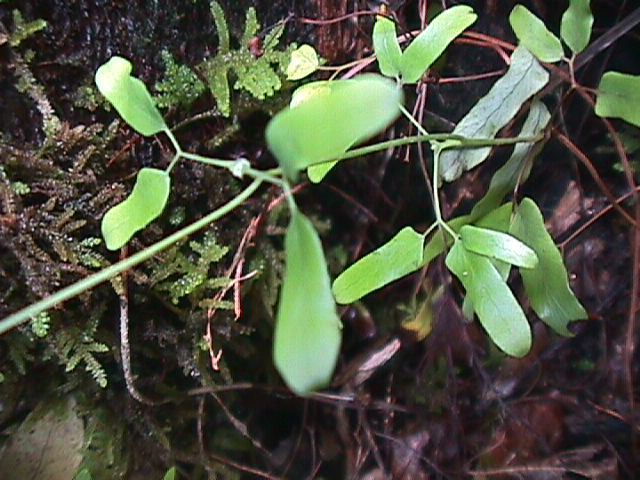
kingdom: Plantae
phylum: Tracheophyta
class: Polypodiopsida
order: Schizaeales
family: Lygodiaceae
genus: Lygodium
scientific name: Lygodium articulatum
